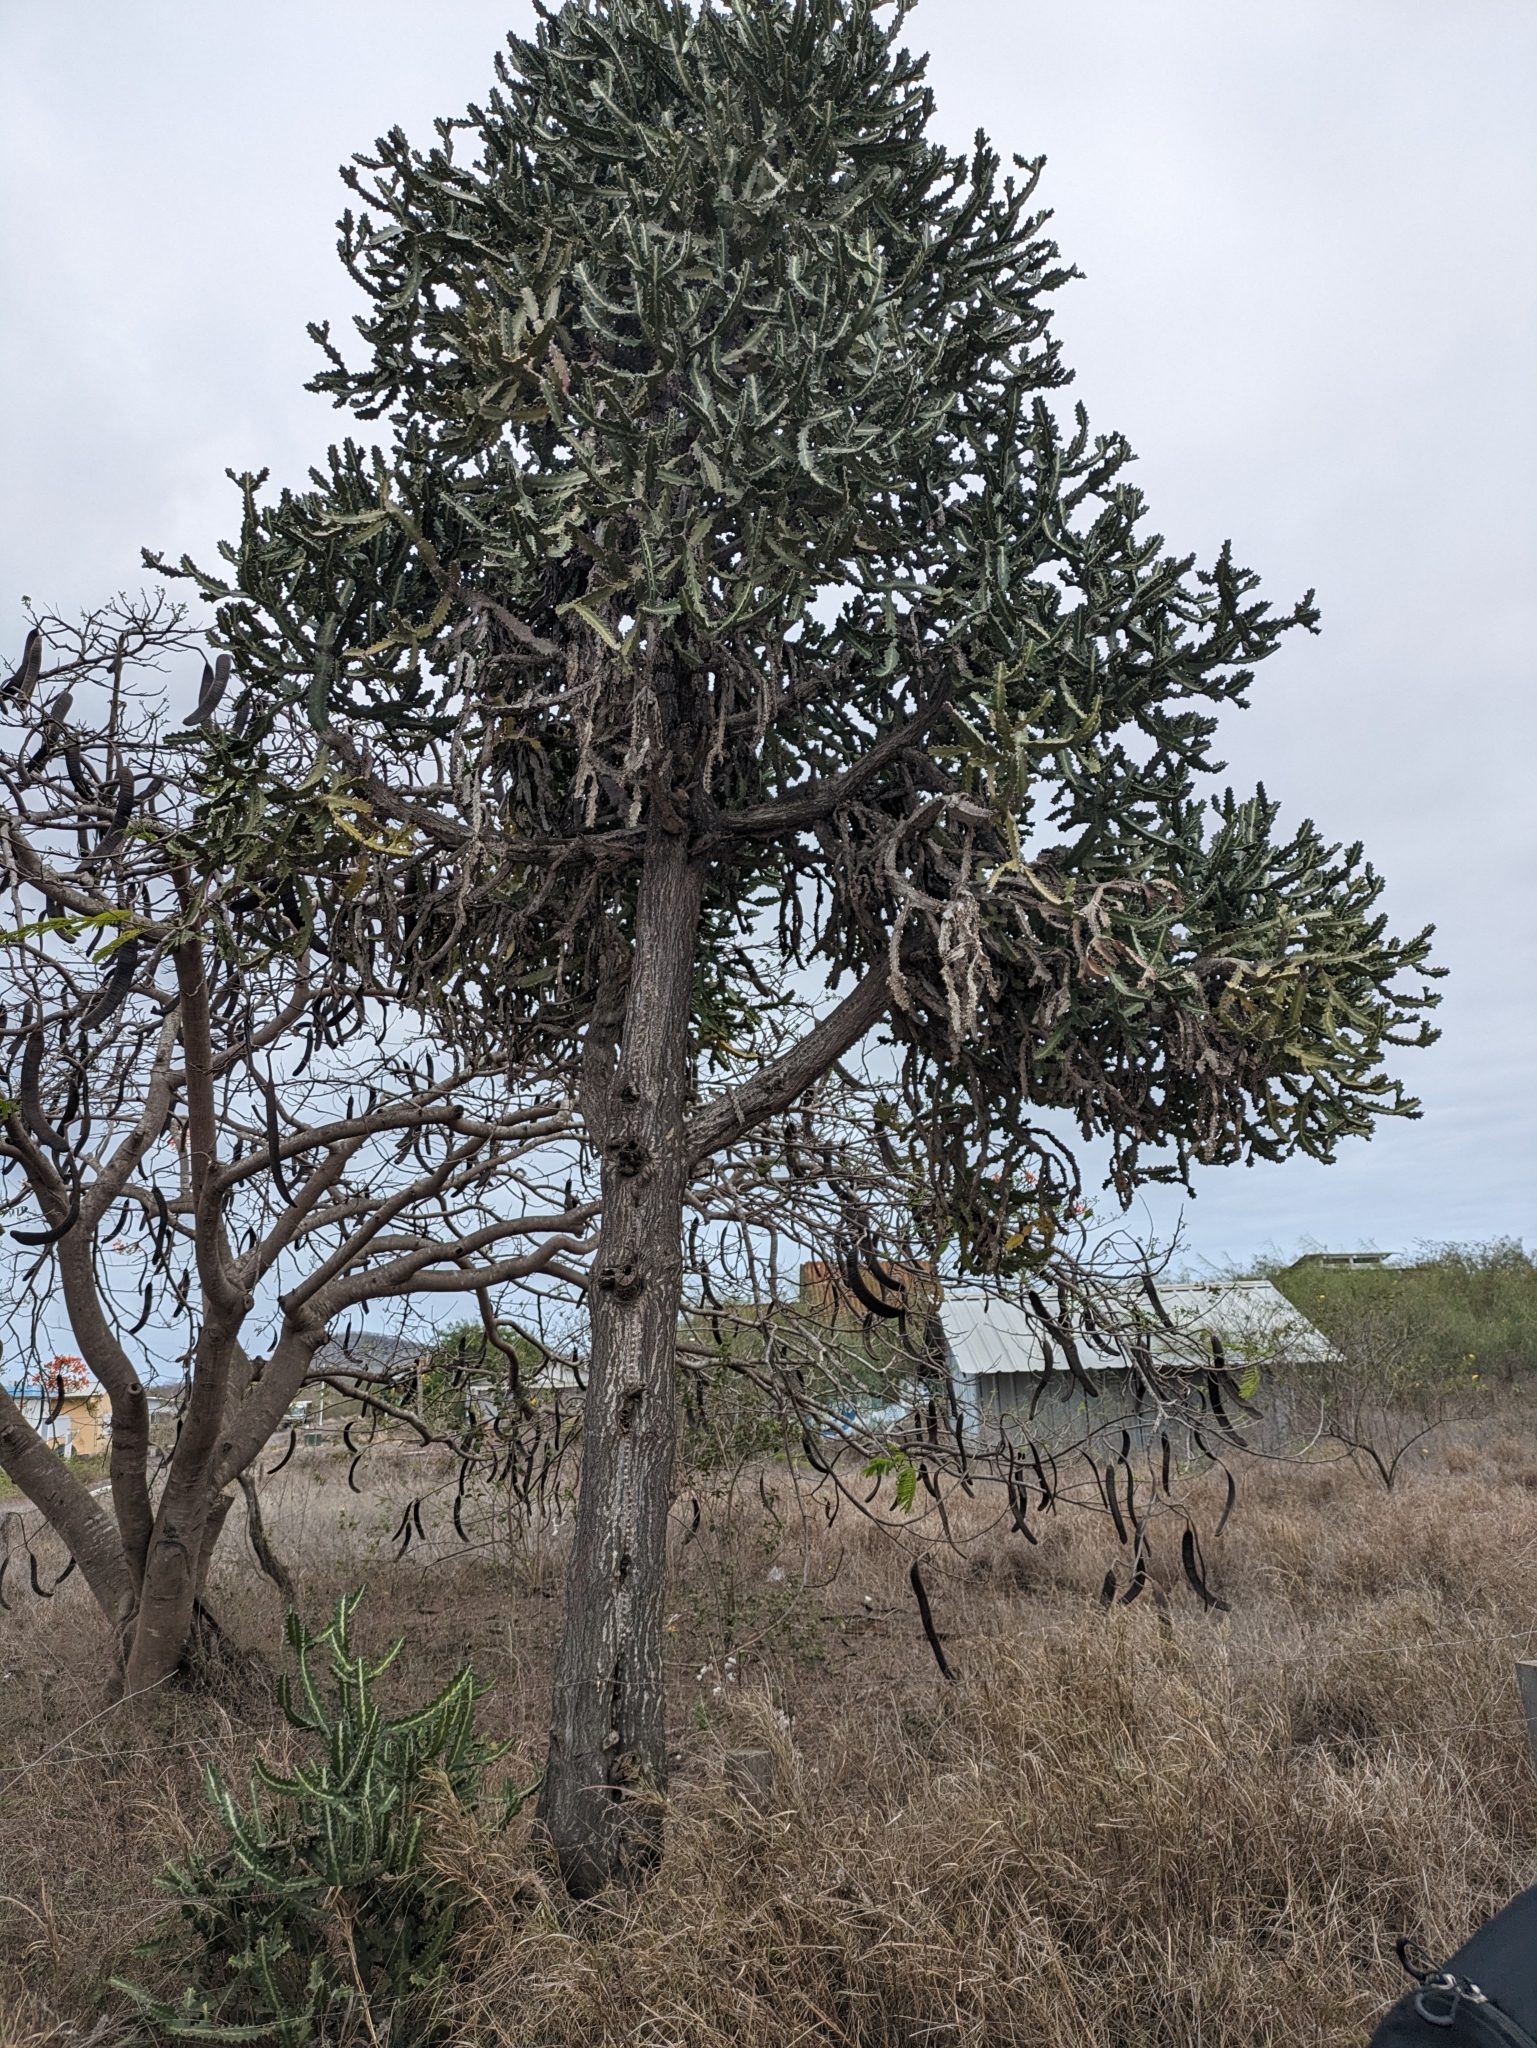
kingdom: Plantae
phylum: Tracheophyta
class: Magnoliopsida
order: Malpighiales
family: Euphorbiaceae
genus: Euphorbia
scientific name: Euphorbia lactea
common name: Mottled spurge
